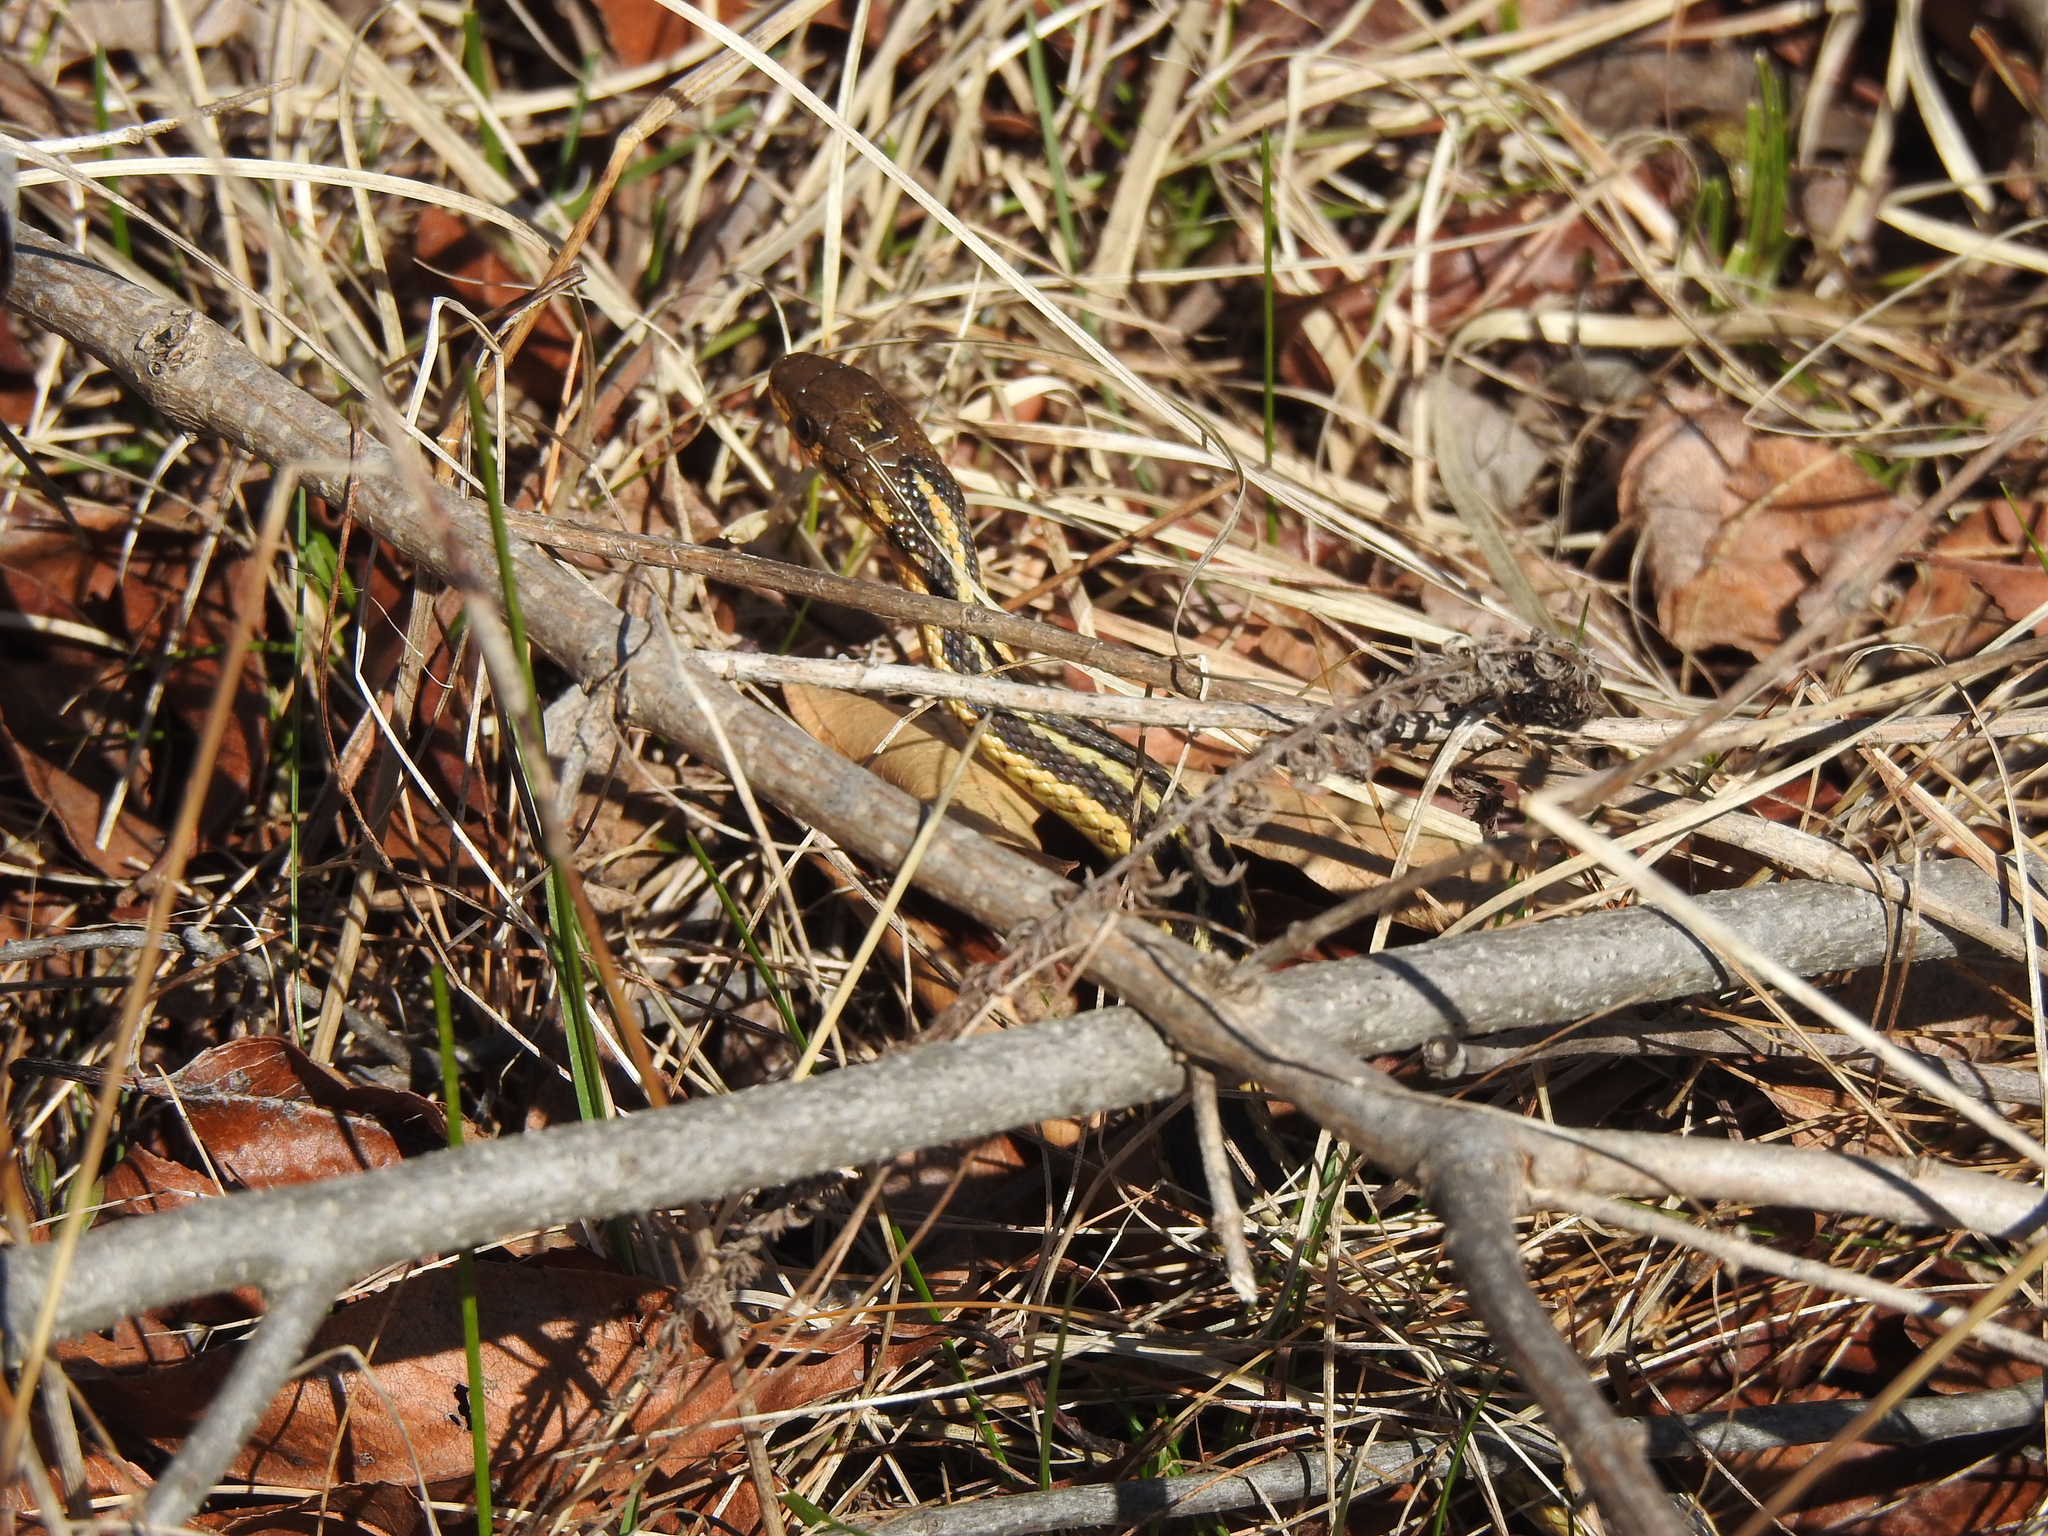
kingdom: Animalia
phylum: Chordata
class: Squamata
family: Colubridae
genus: Thamnophis
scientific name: Thamnophis sirtalis
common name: Common garter snake
